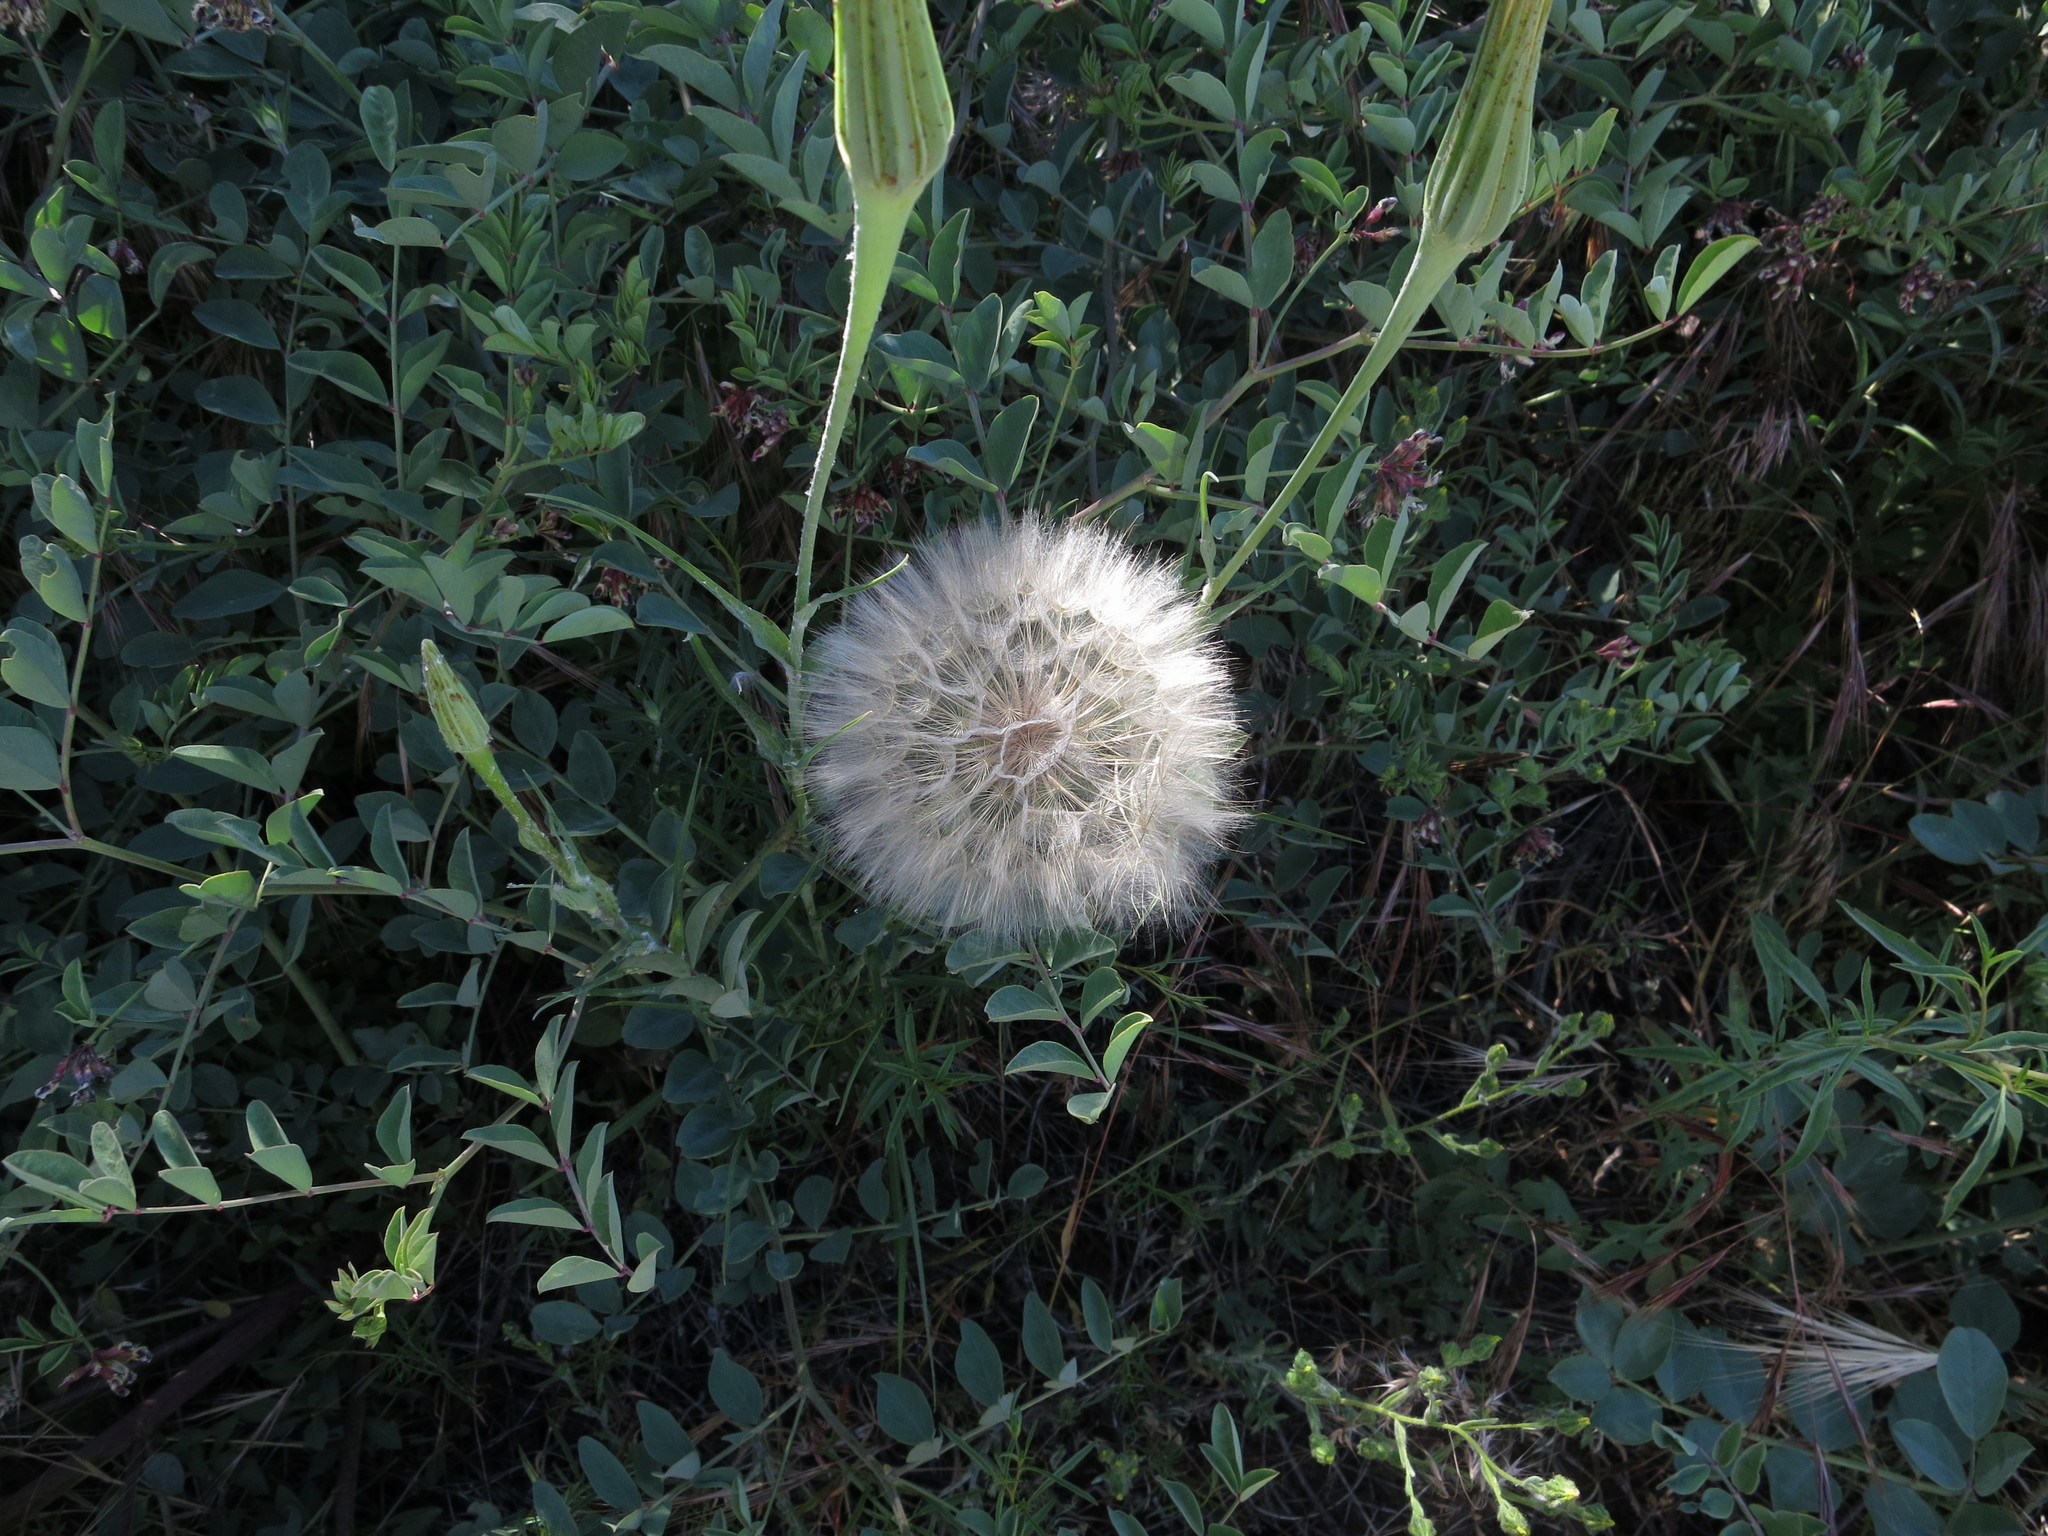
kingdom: Plantae
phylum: Tracheophyta
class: Magnoliopsida
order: Asterales
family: Asteraceae
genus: Tragopogon
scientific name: Tragopogon dubius
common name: Yellow salsify
